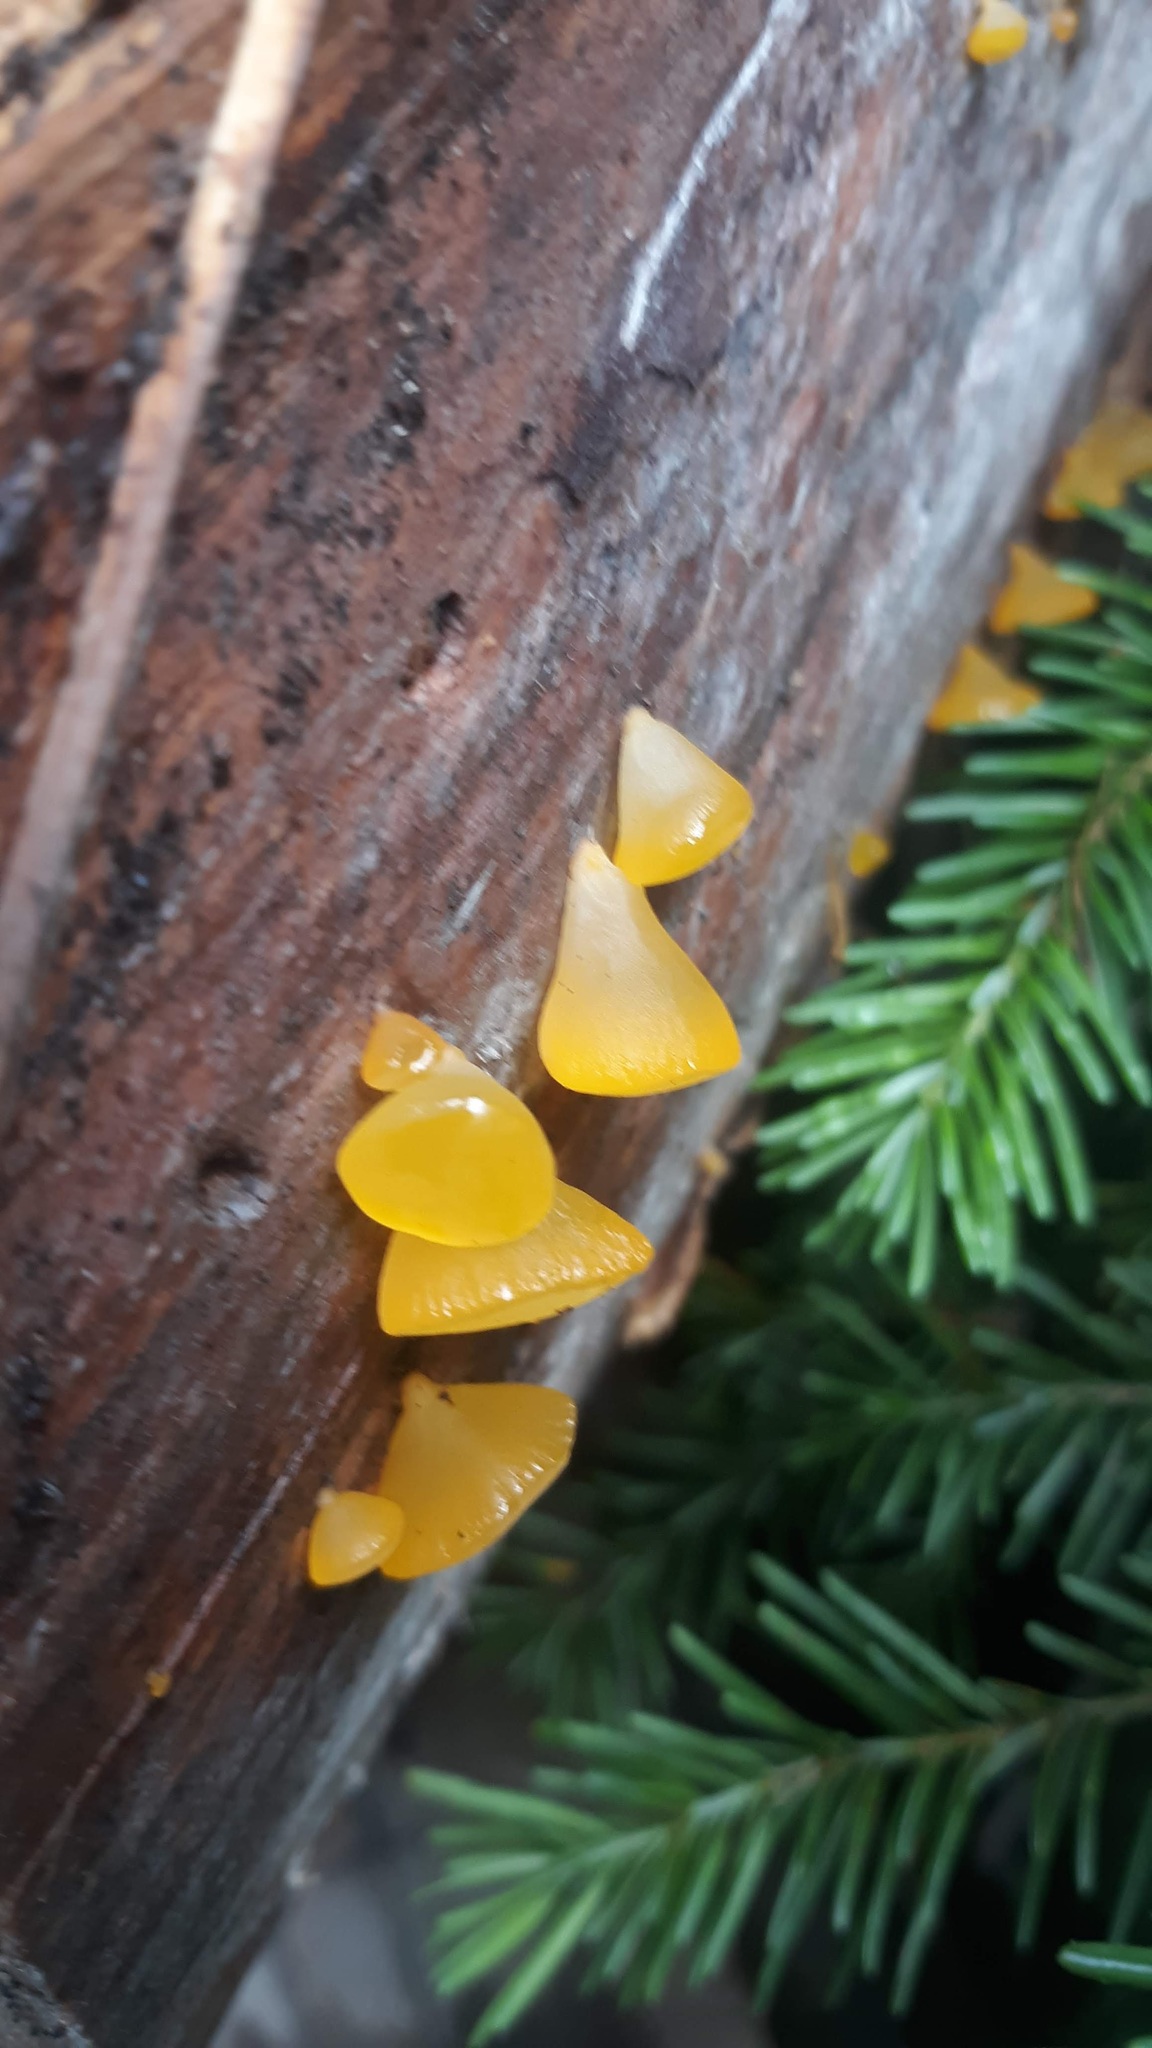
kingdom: Fungi
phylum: Basidiomycota
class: Dacrymycetes
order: Dacrymycetales
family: Dacrymycetaceae
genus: Guepiniopsis
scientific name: Guepiniopsis alpina
